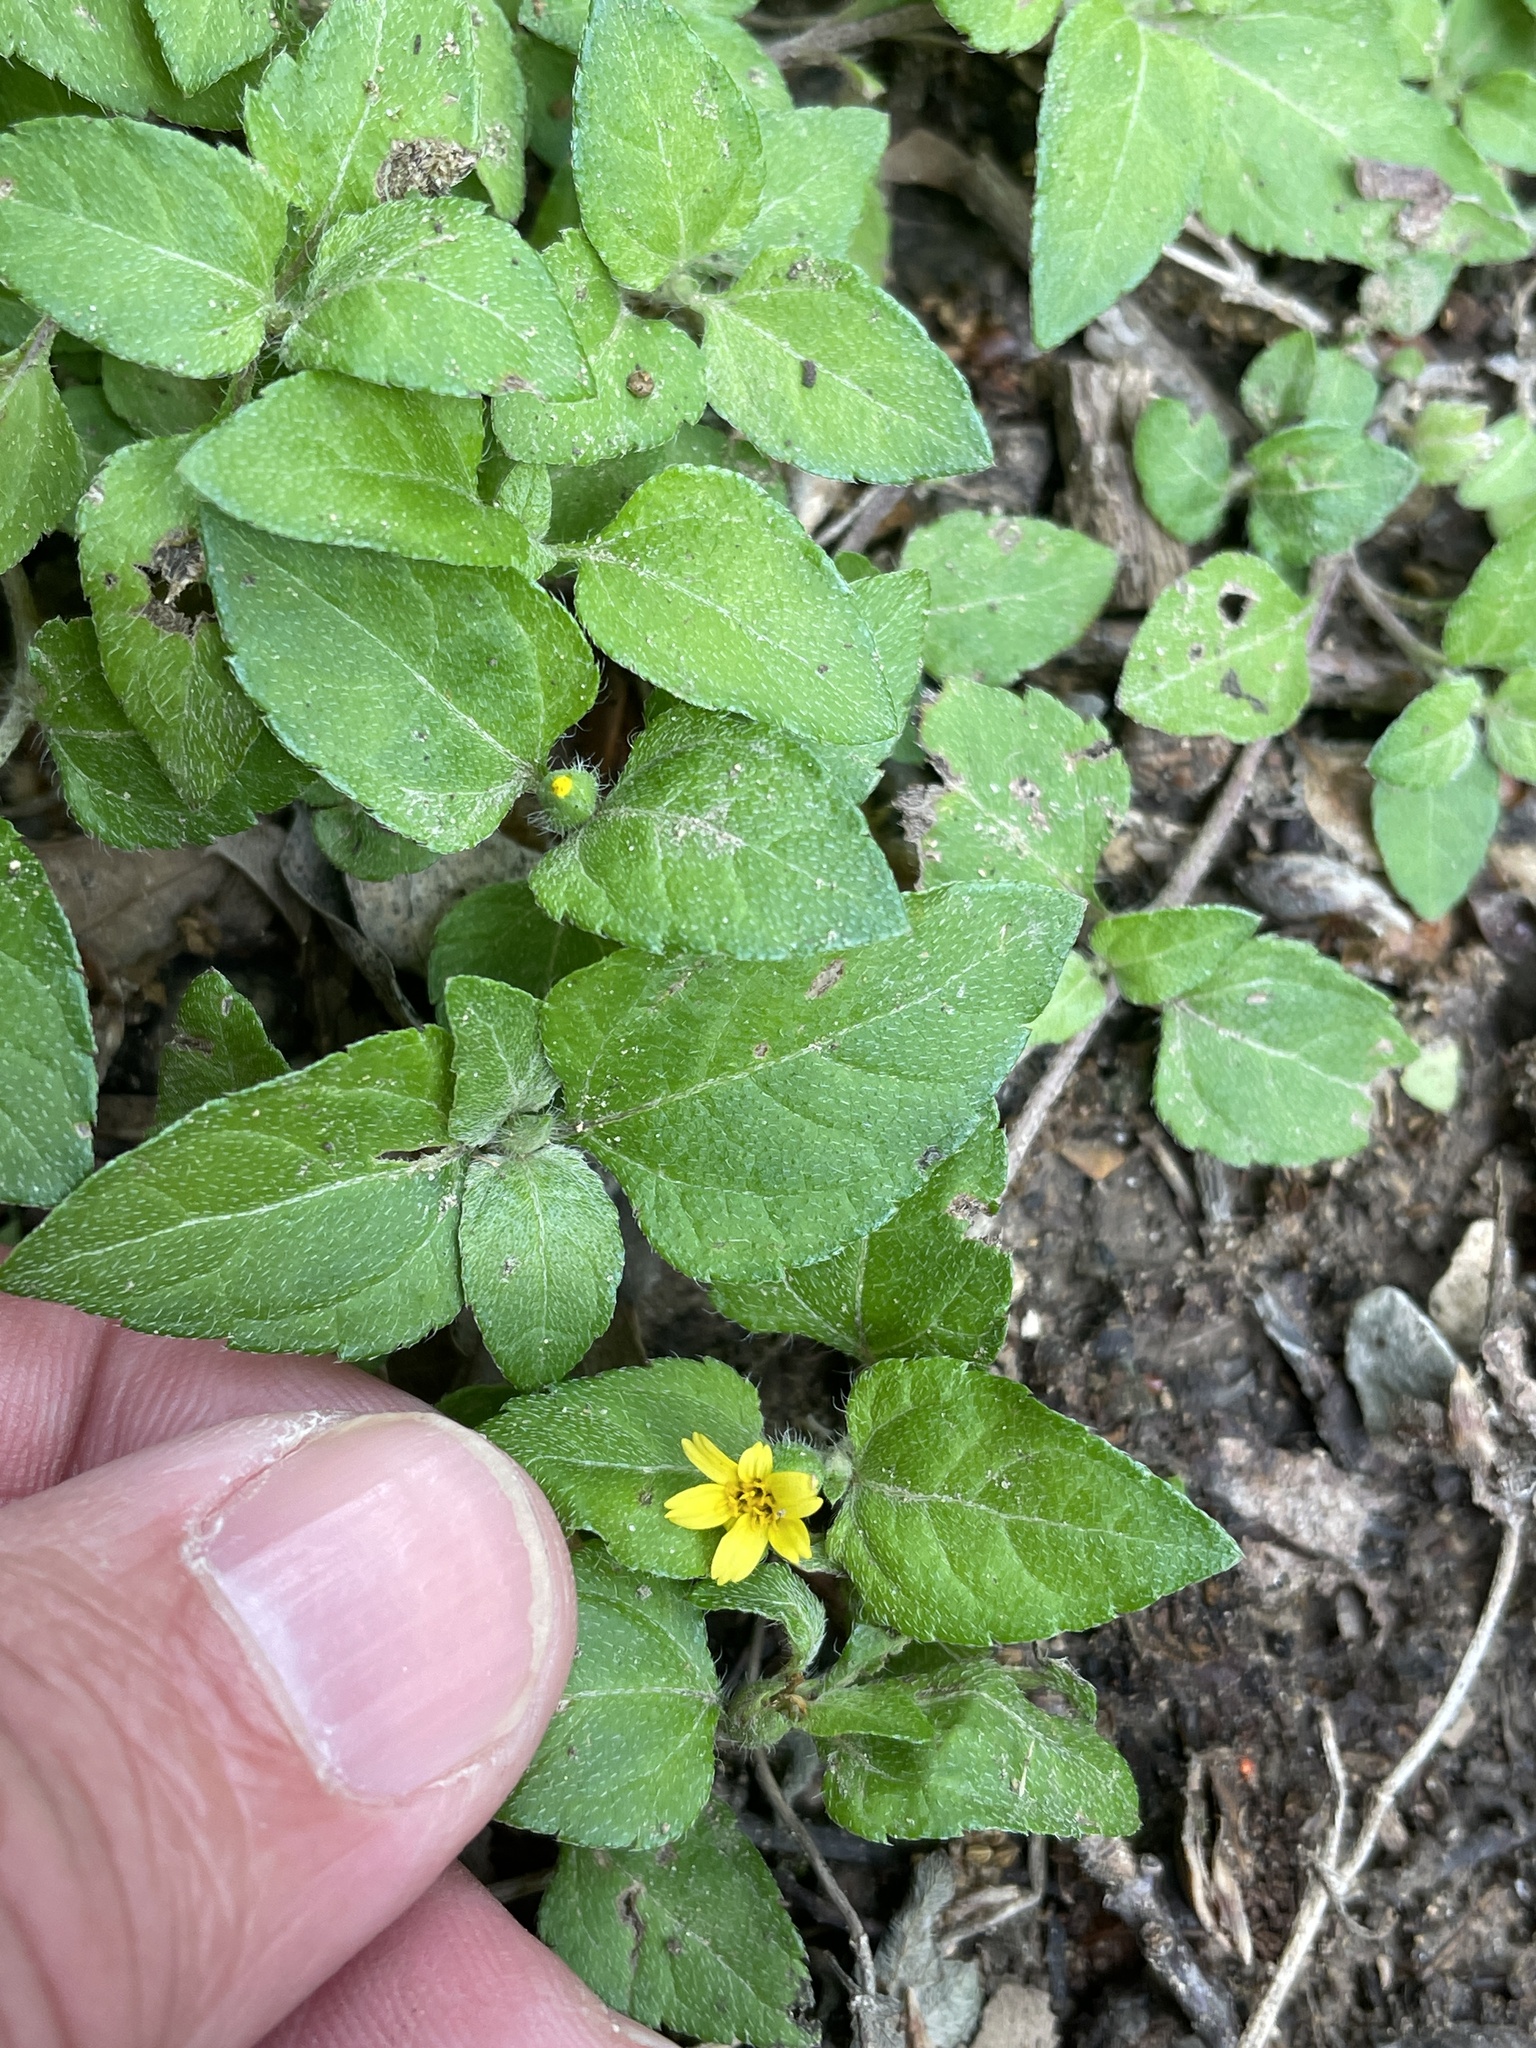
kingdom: Plantae
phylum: Tracheophyta
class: Magnoliopsida
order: Asterales
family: Asteraceae
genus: Calyptocarpus
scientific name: Calyptocarpus vialis
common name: Straggler daisy
